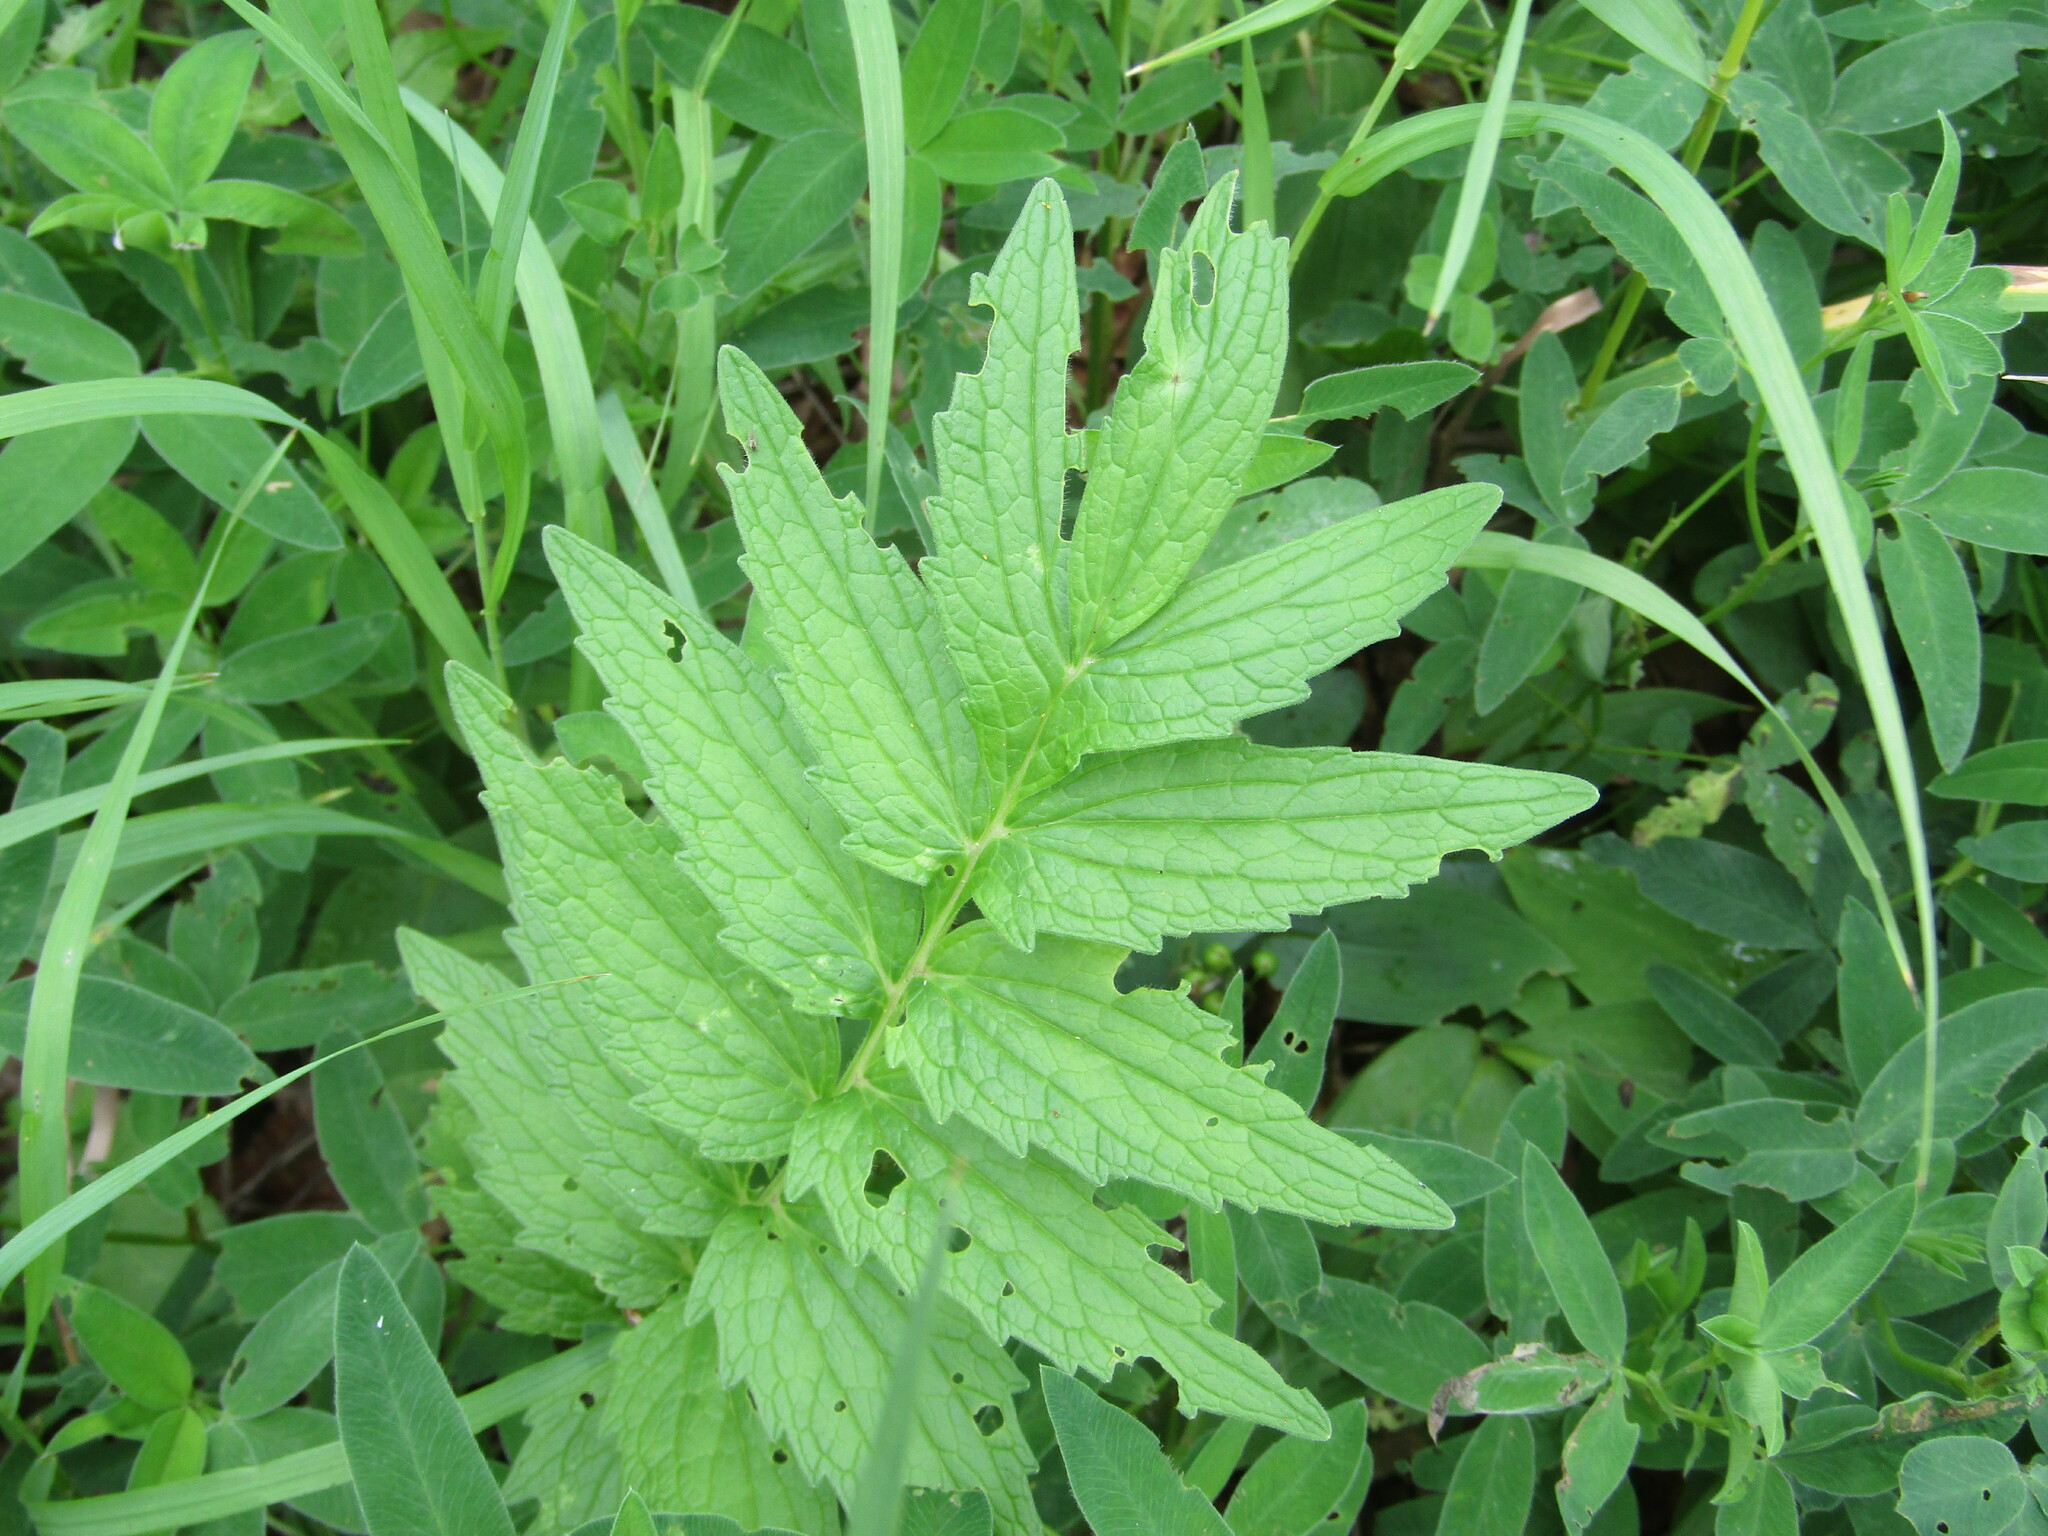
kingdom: Plantae
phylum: Tracheophyta
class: Magnoliopsida
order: Dipsacales
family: Caprifoliaceae
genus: Valeriana
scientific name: Valeriana officinalis
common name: Common valerian
